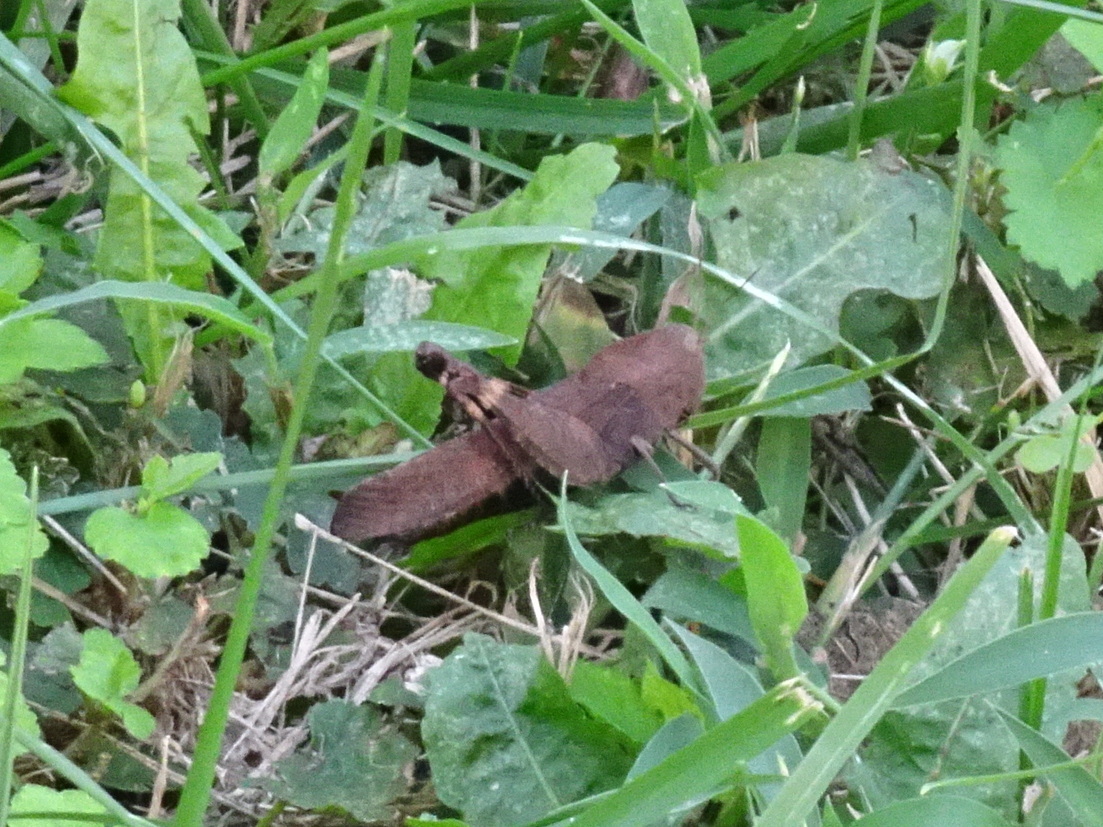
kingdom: Animalia
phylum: Arthropoda
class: Insecta
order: Orthoptera
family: Acrididae
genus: Arphia
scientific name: Arphia xanthoptera
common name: Autumn yellow-winged grasshopper
